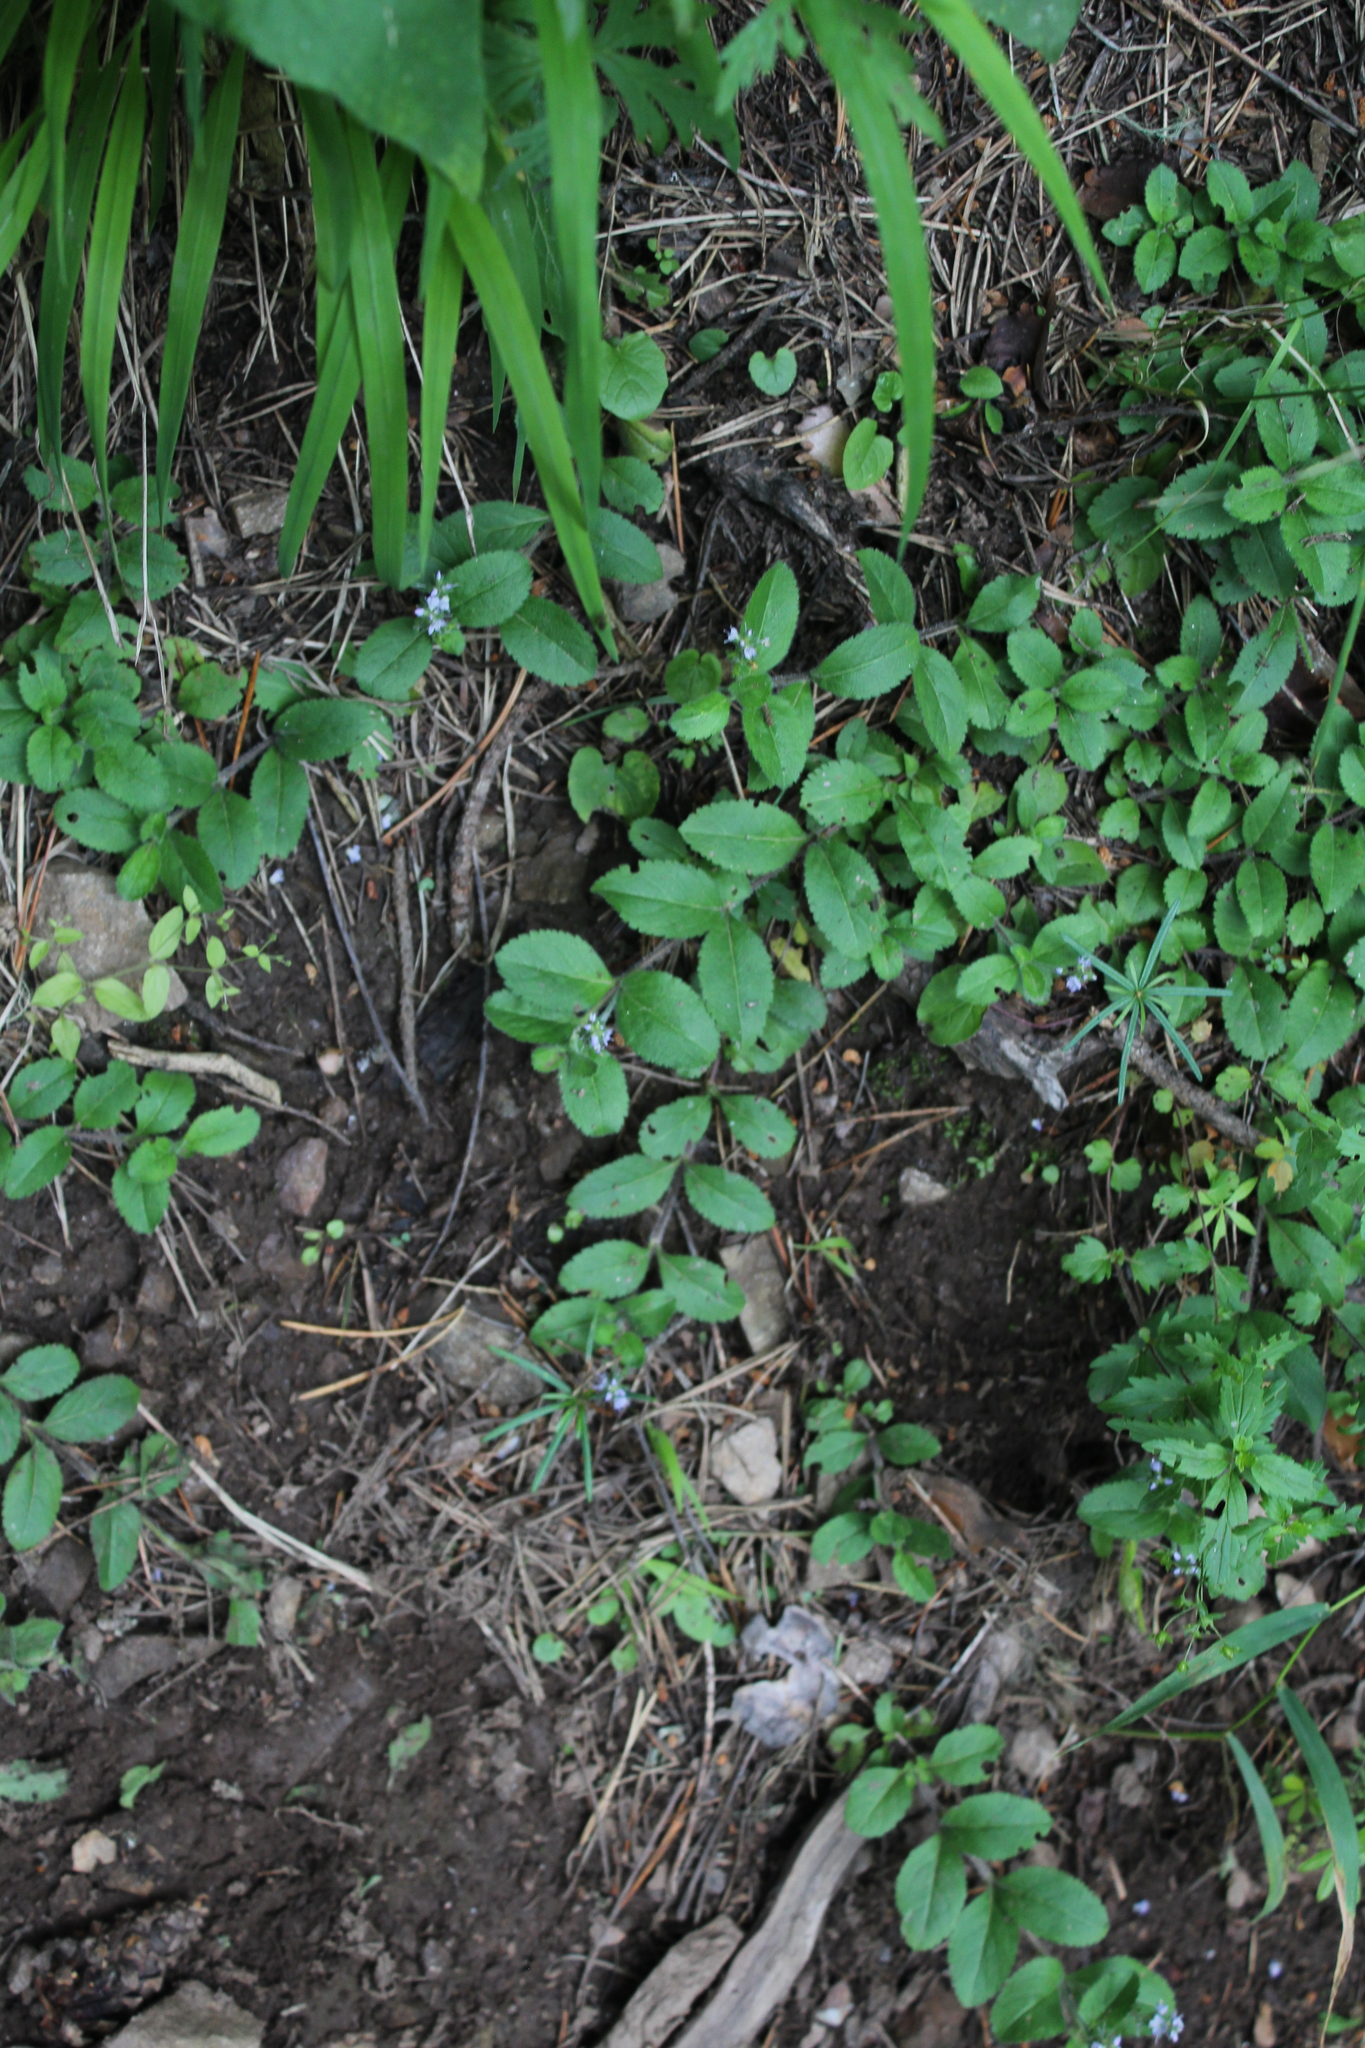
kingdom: Plantae
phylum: Tracheophyta
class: Magnoliopsida
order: Lamiales
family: Plantaginaceae
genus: Veronica
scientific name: Veronica officinalis
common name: Common speedwell
